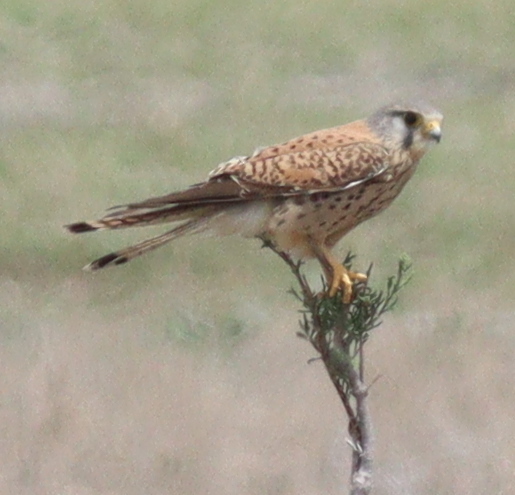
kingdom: Animalia
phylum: Chordata
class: Aves
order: Falconiformes
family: Falconidae
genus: Falco
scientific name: Falco tinnunculus
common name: Common kestrel
